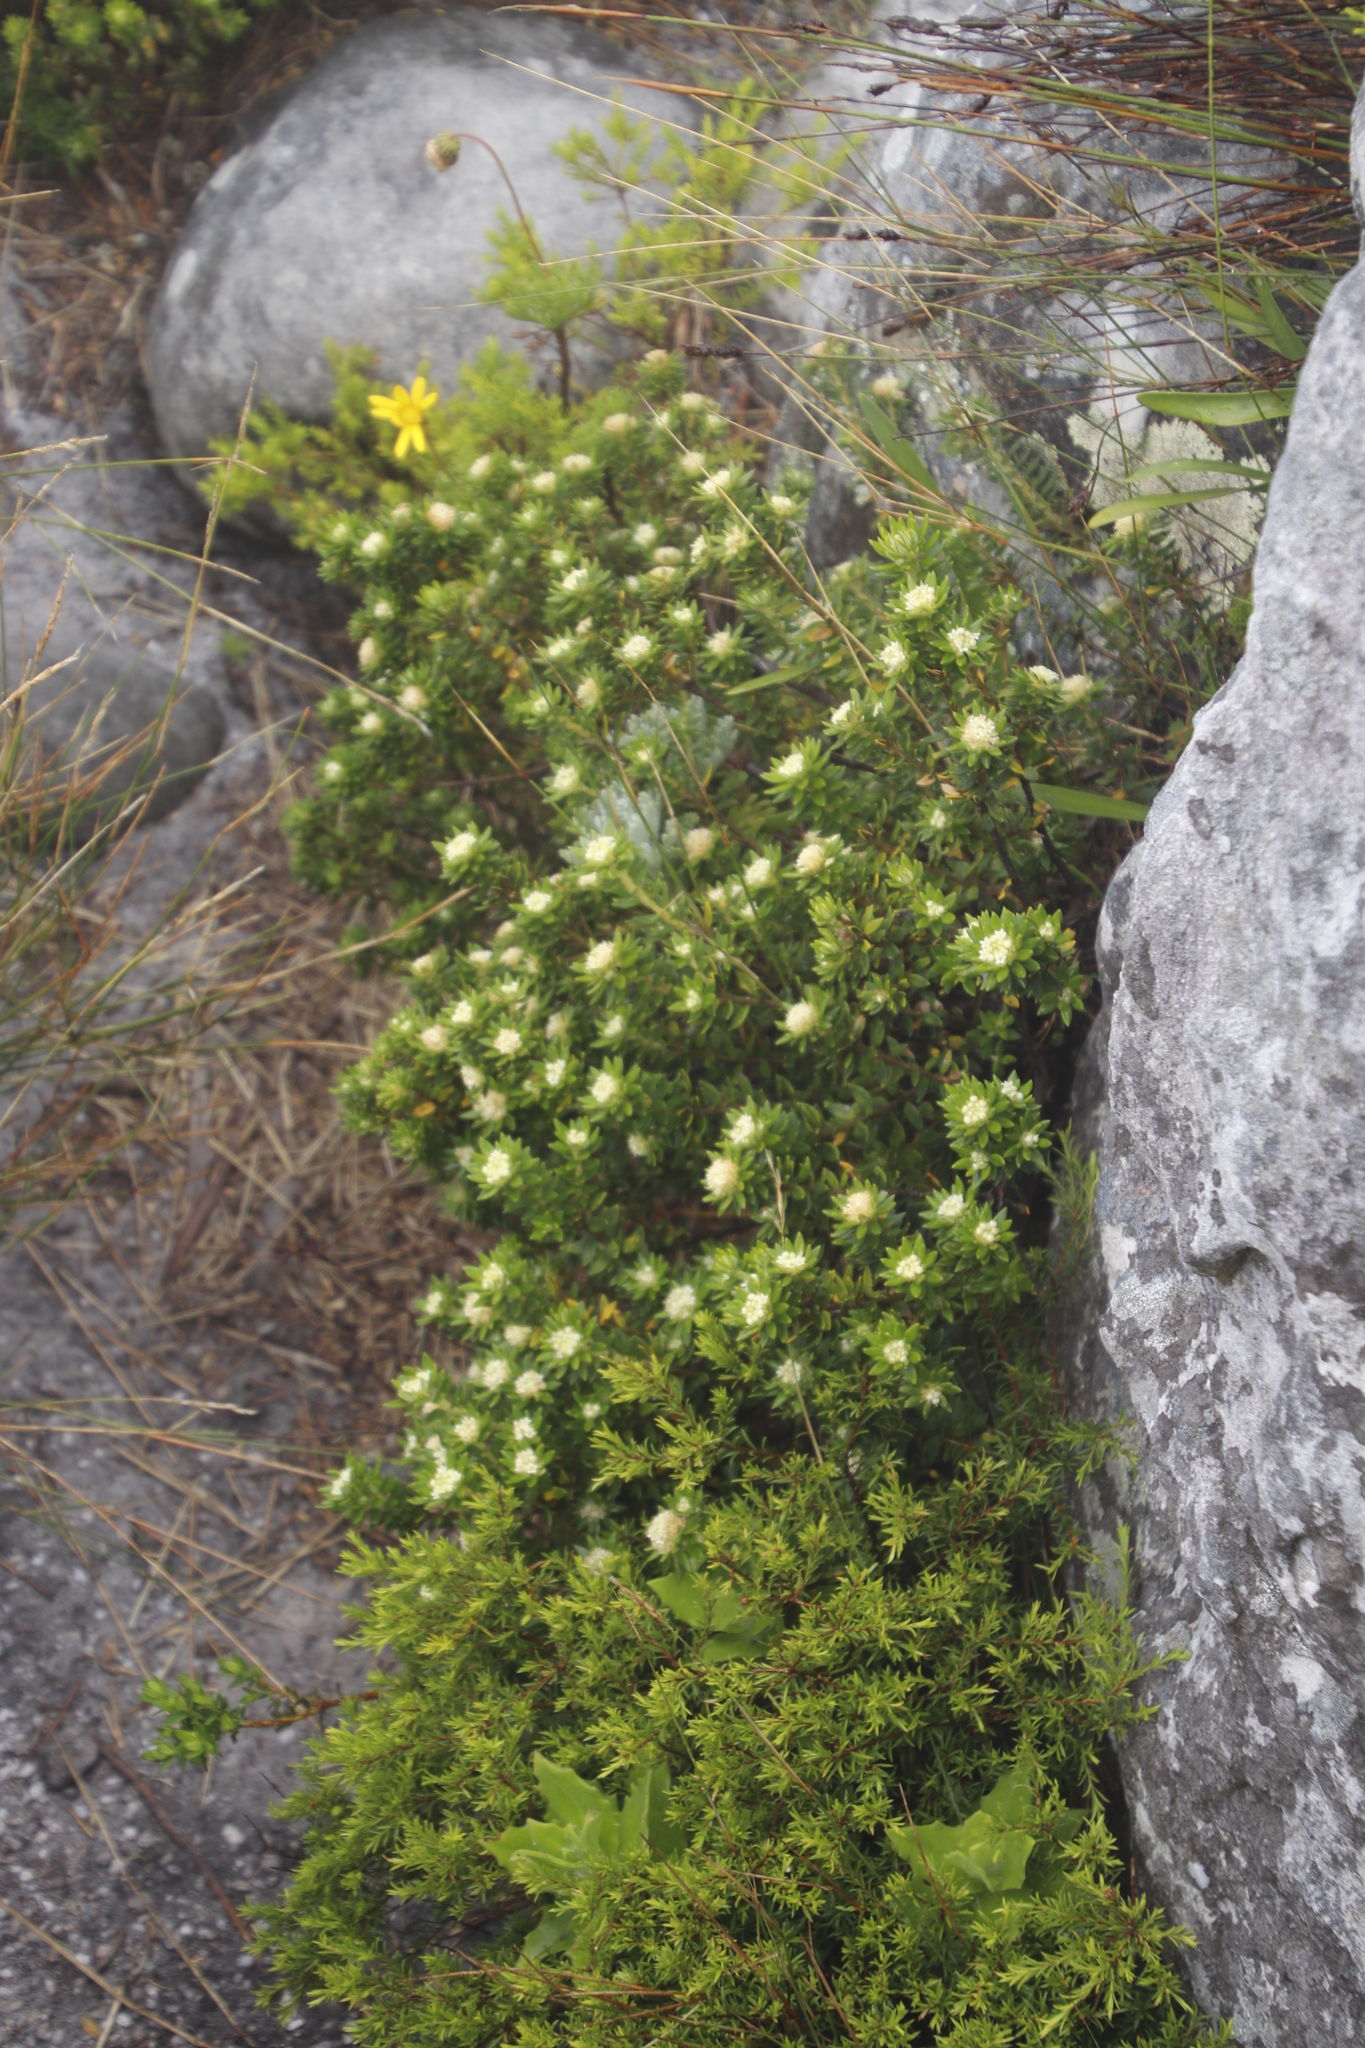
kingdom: Plantae
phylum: Tracheophyta
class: Magnoliopsida
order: Rosales
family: Rhamnaceae
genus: Phylica
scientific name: Phylica dioica
